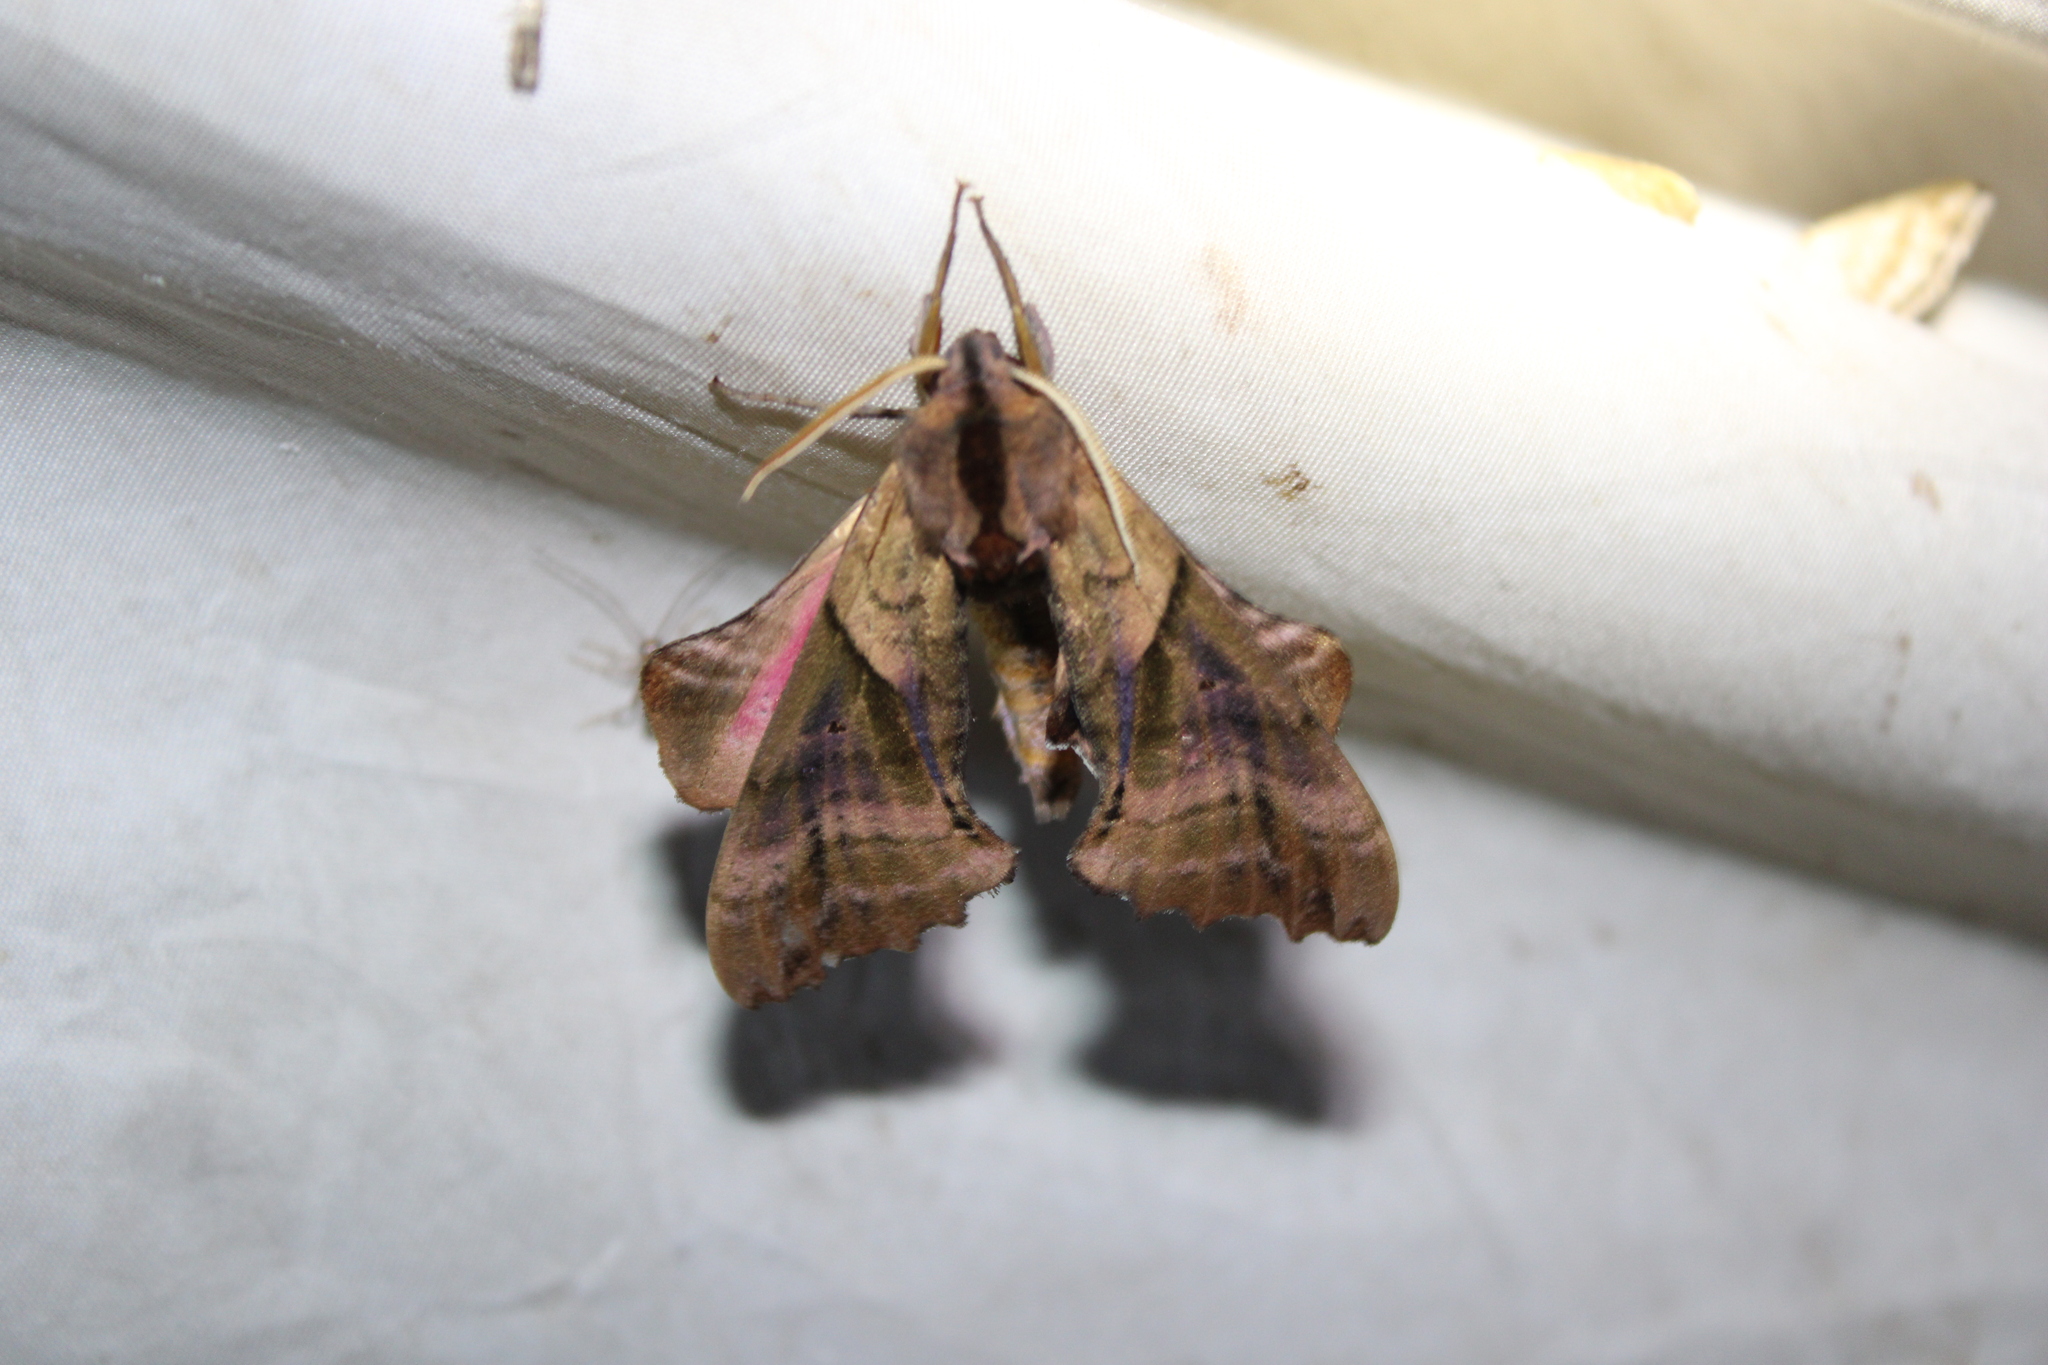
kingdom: Animalia
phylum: Arthropoda
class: Insecta
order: Lepidoptera
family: Sphingidae
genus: Paonias
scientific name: Paonias excaecata
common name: Blind-eyed sphinx
